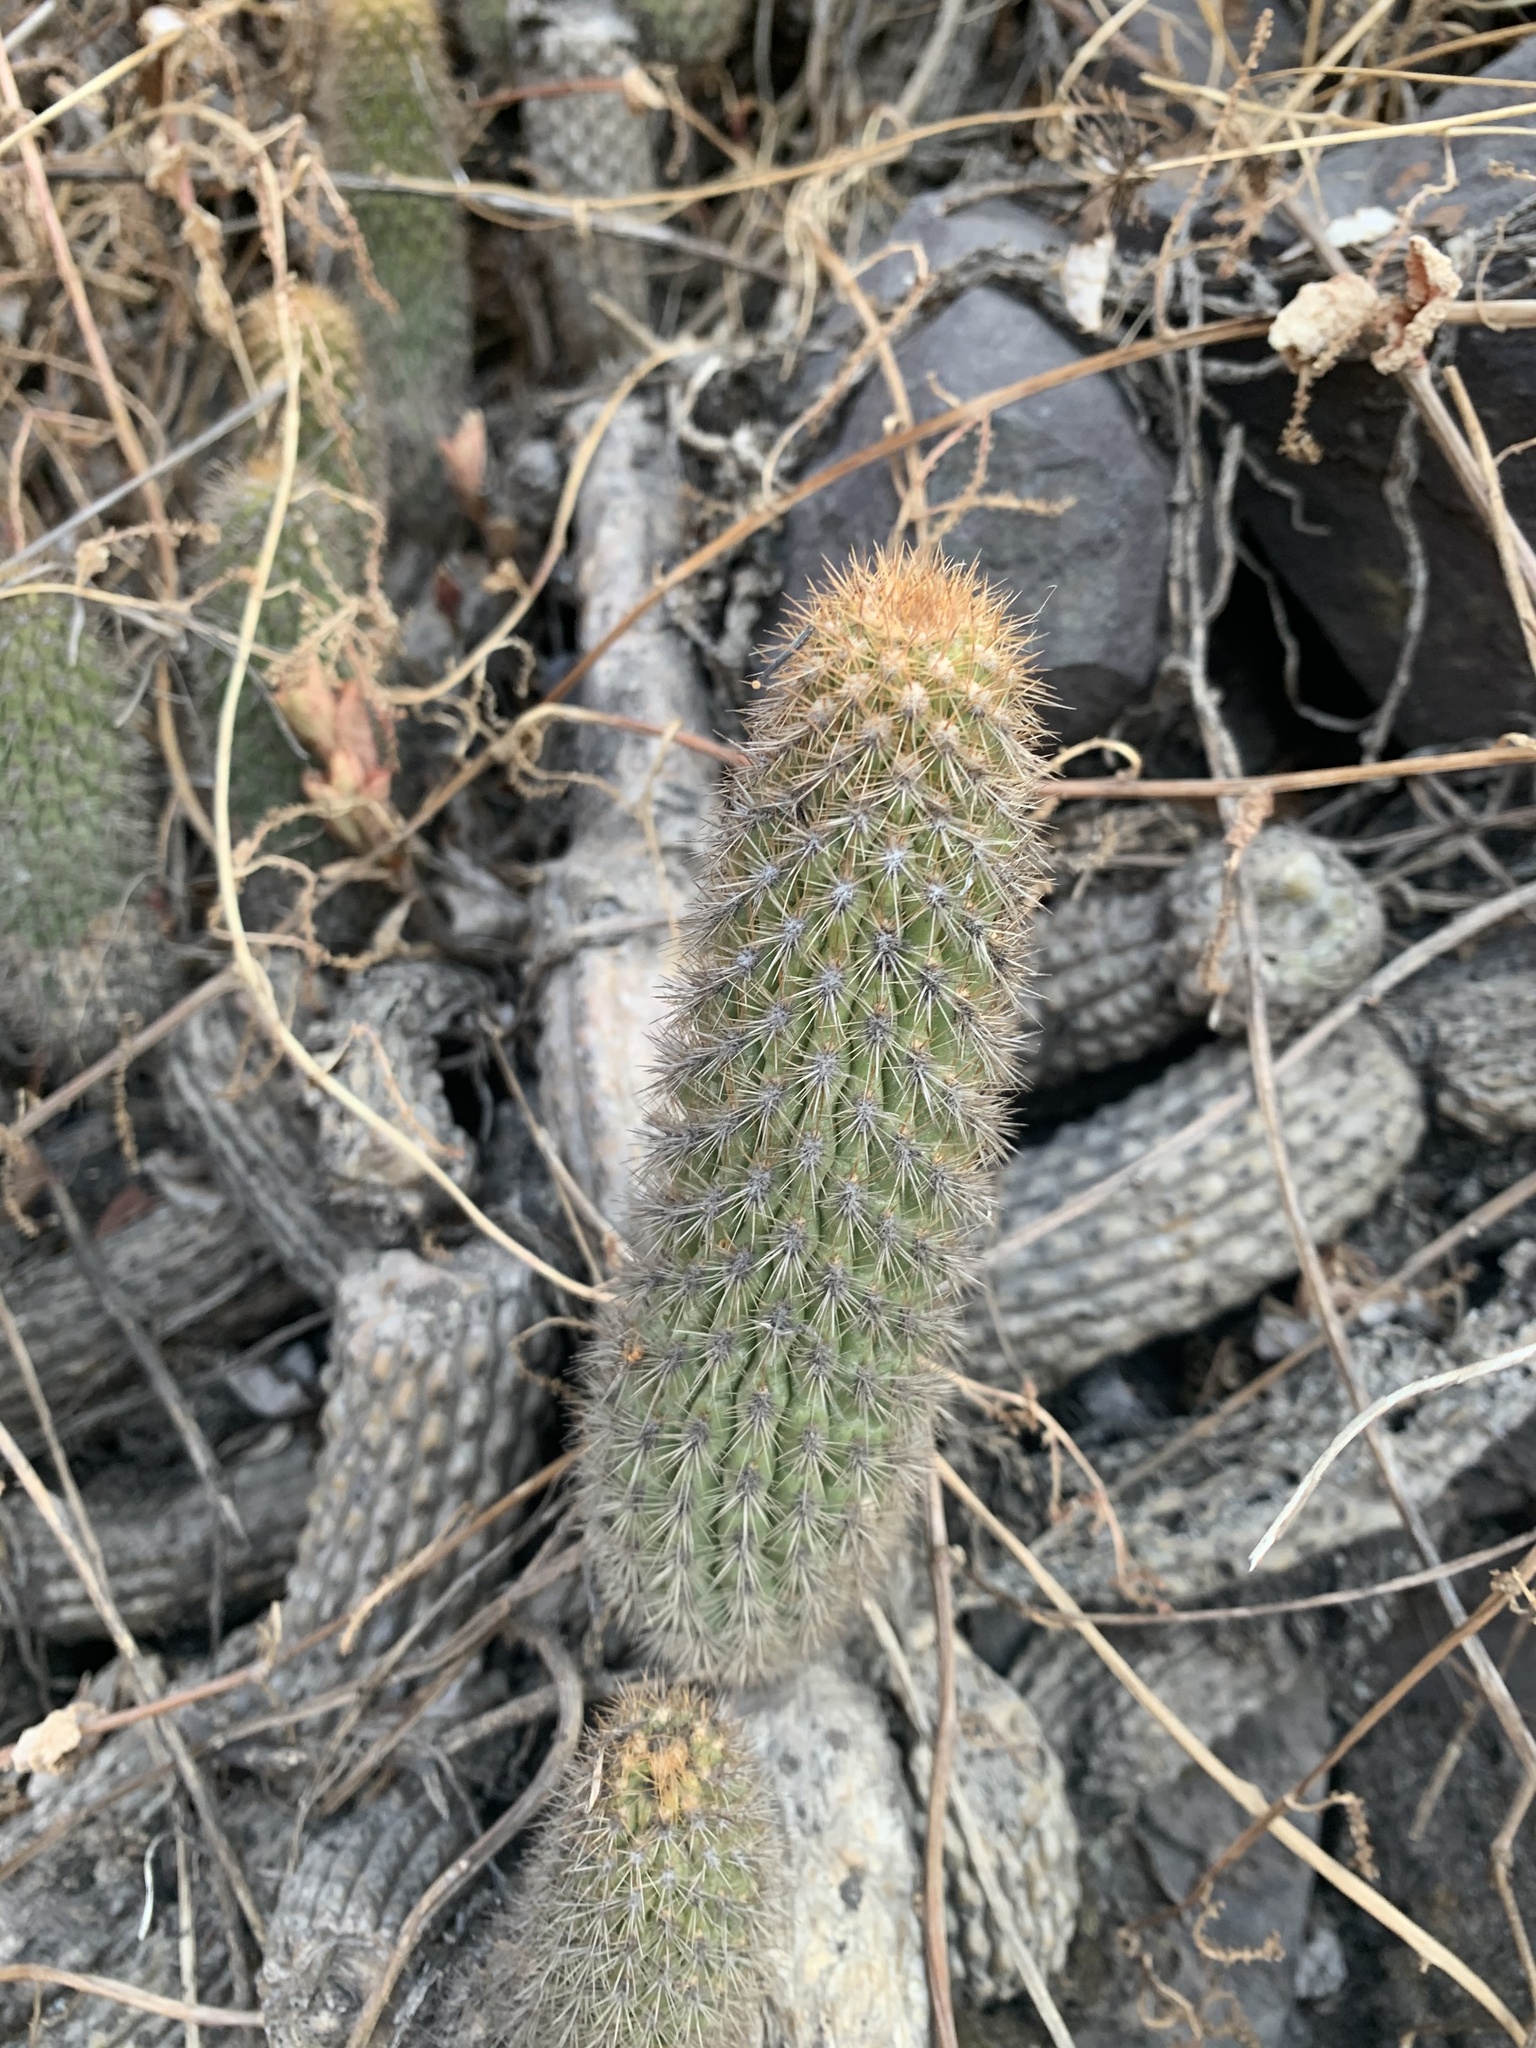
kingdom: Plantae
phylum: Tracheophyta
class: Magnoliopsida
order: Caryophyllales
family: Cactaceae
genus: Borzicactus
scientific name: Borzicactus acanthurus
